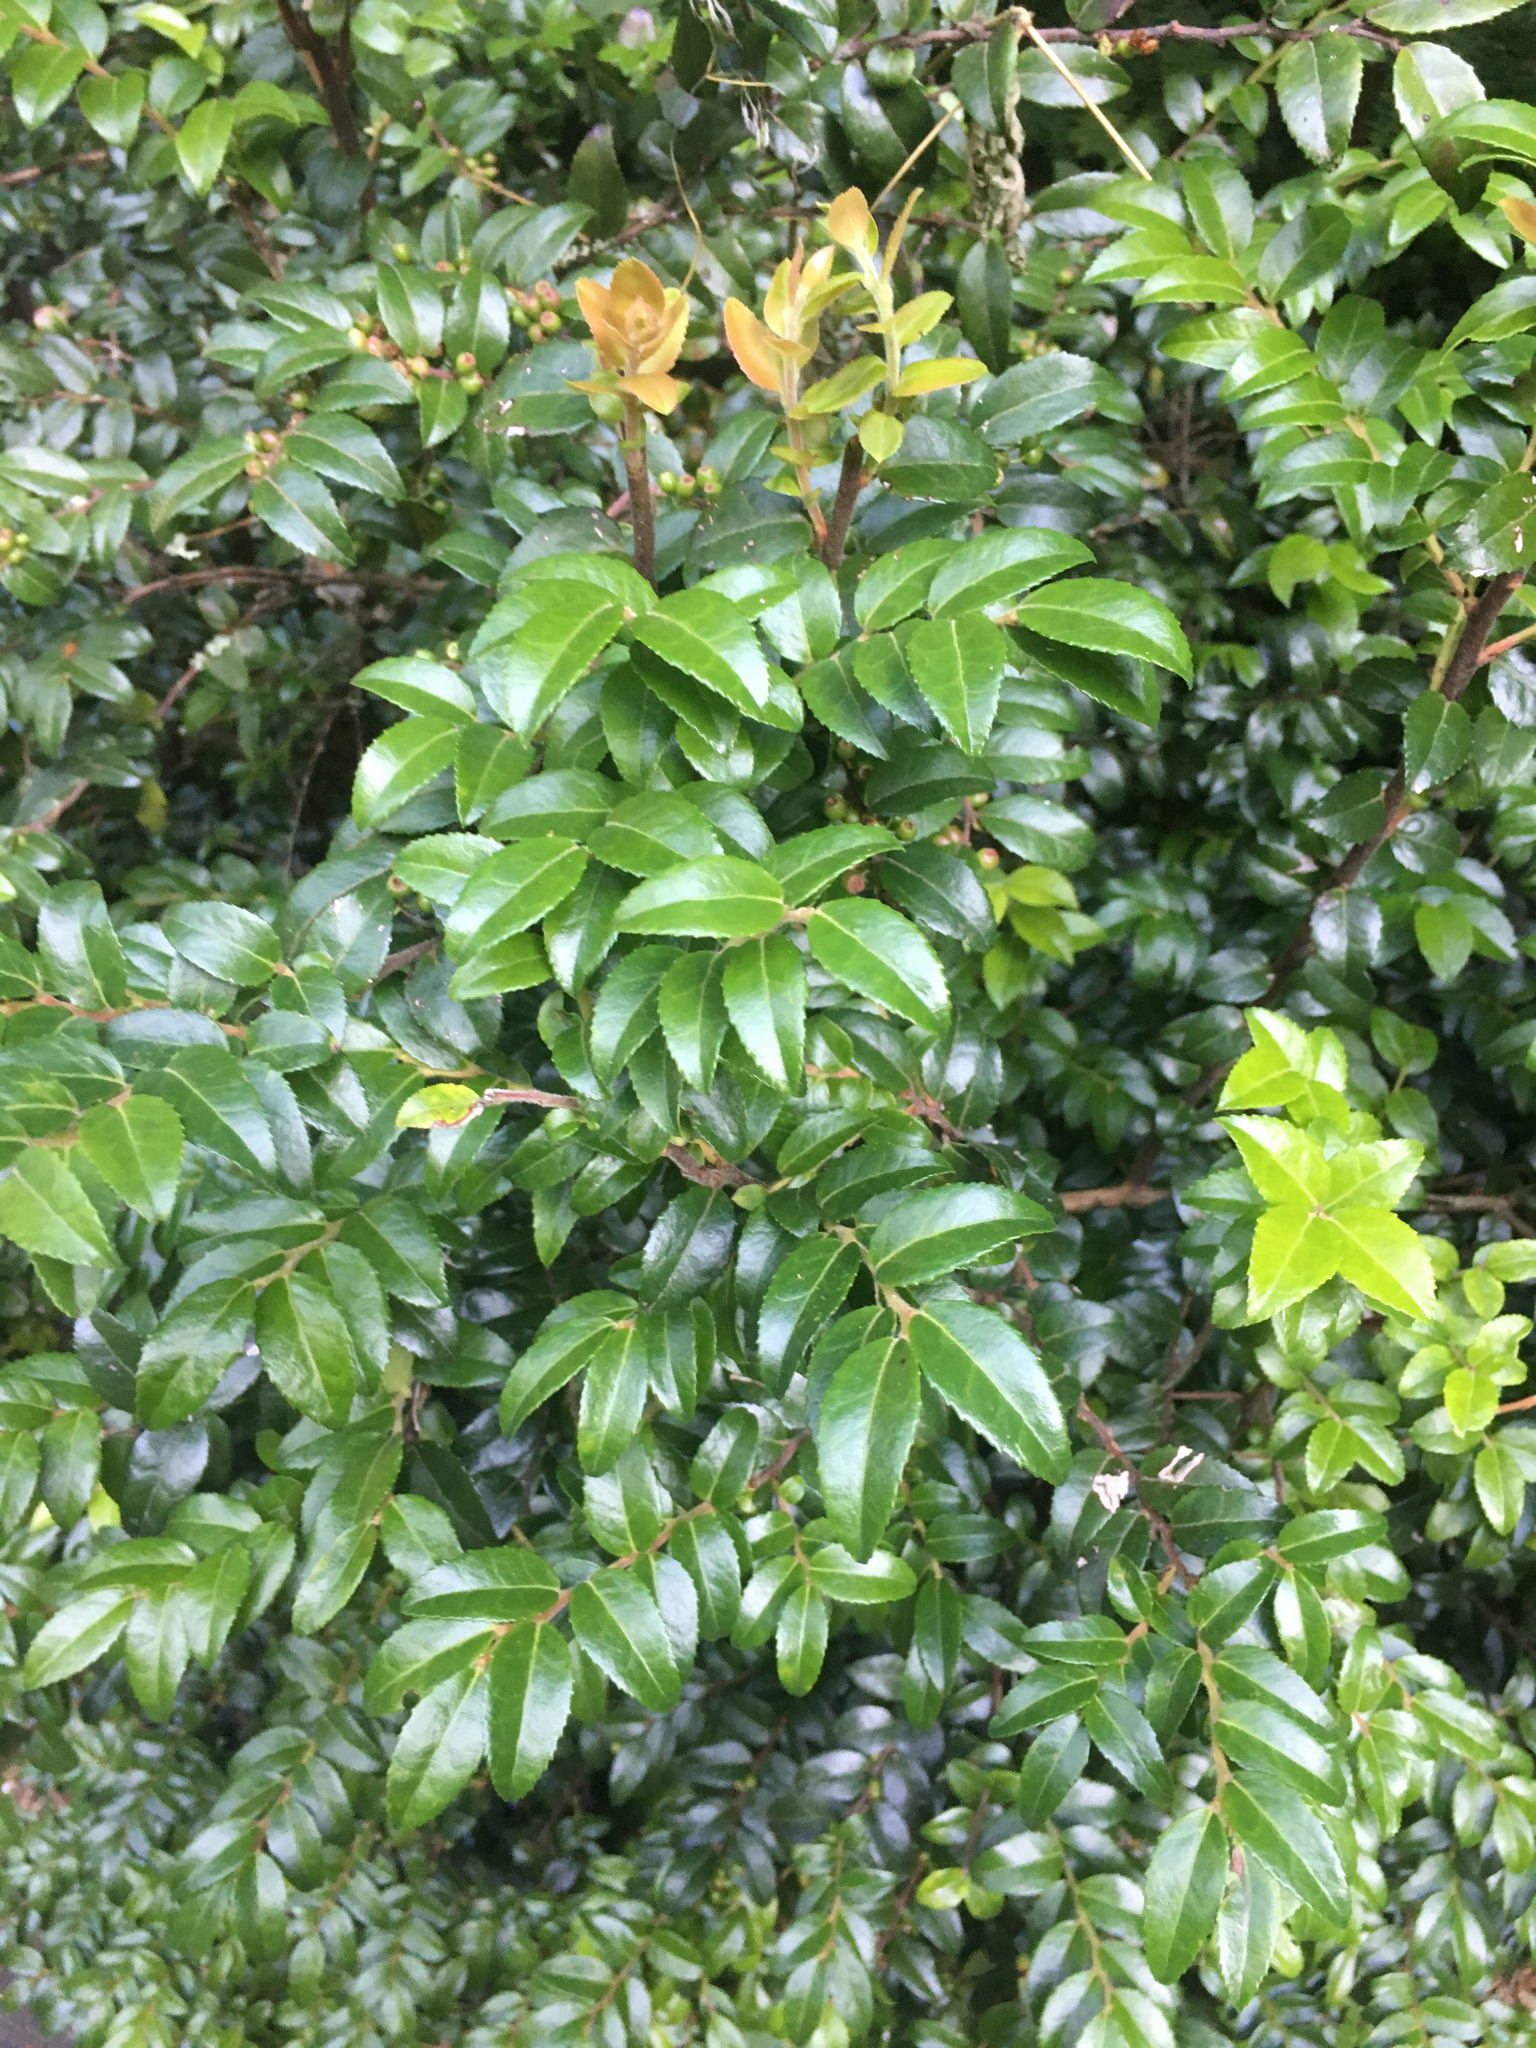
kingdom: Plantae
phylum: Tracheophyta
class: Magnoliopsida
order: Ericales
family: Ericaceae
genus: Vaccinium
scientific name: Vaccinium ovatum
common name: California-huckleberry
